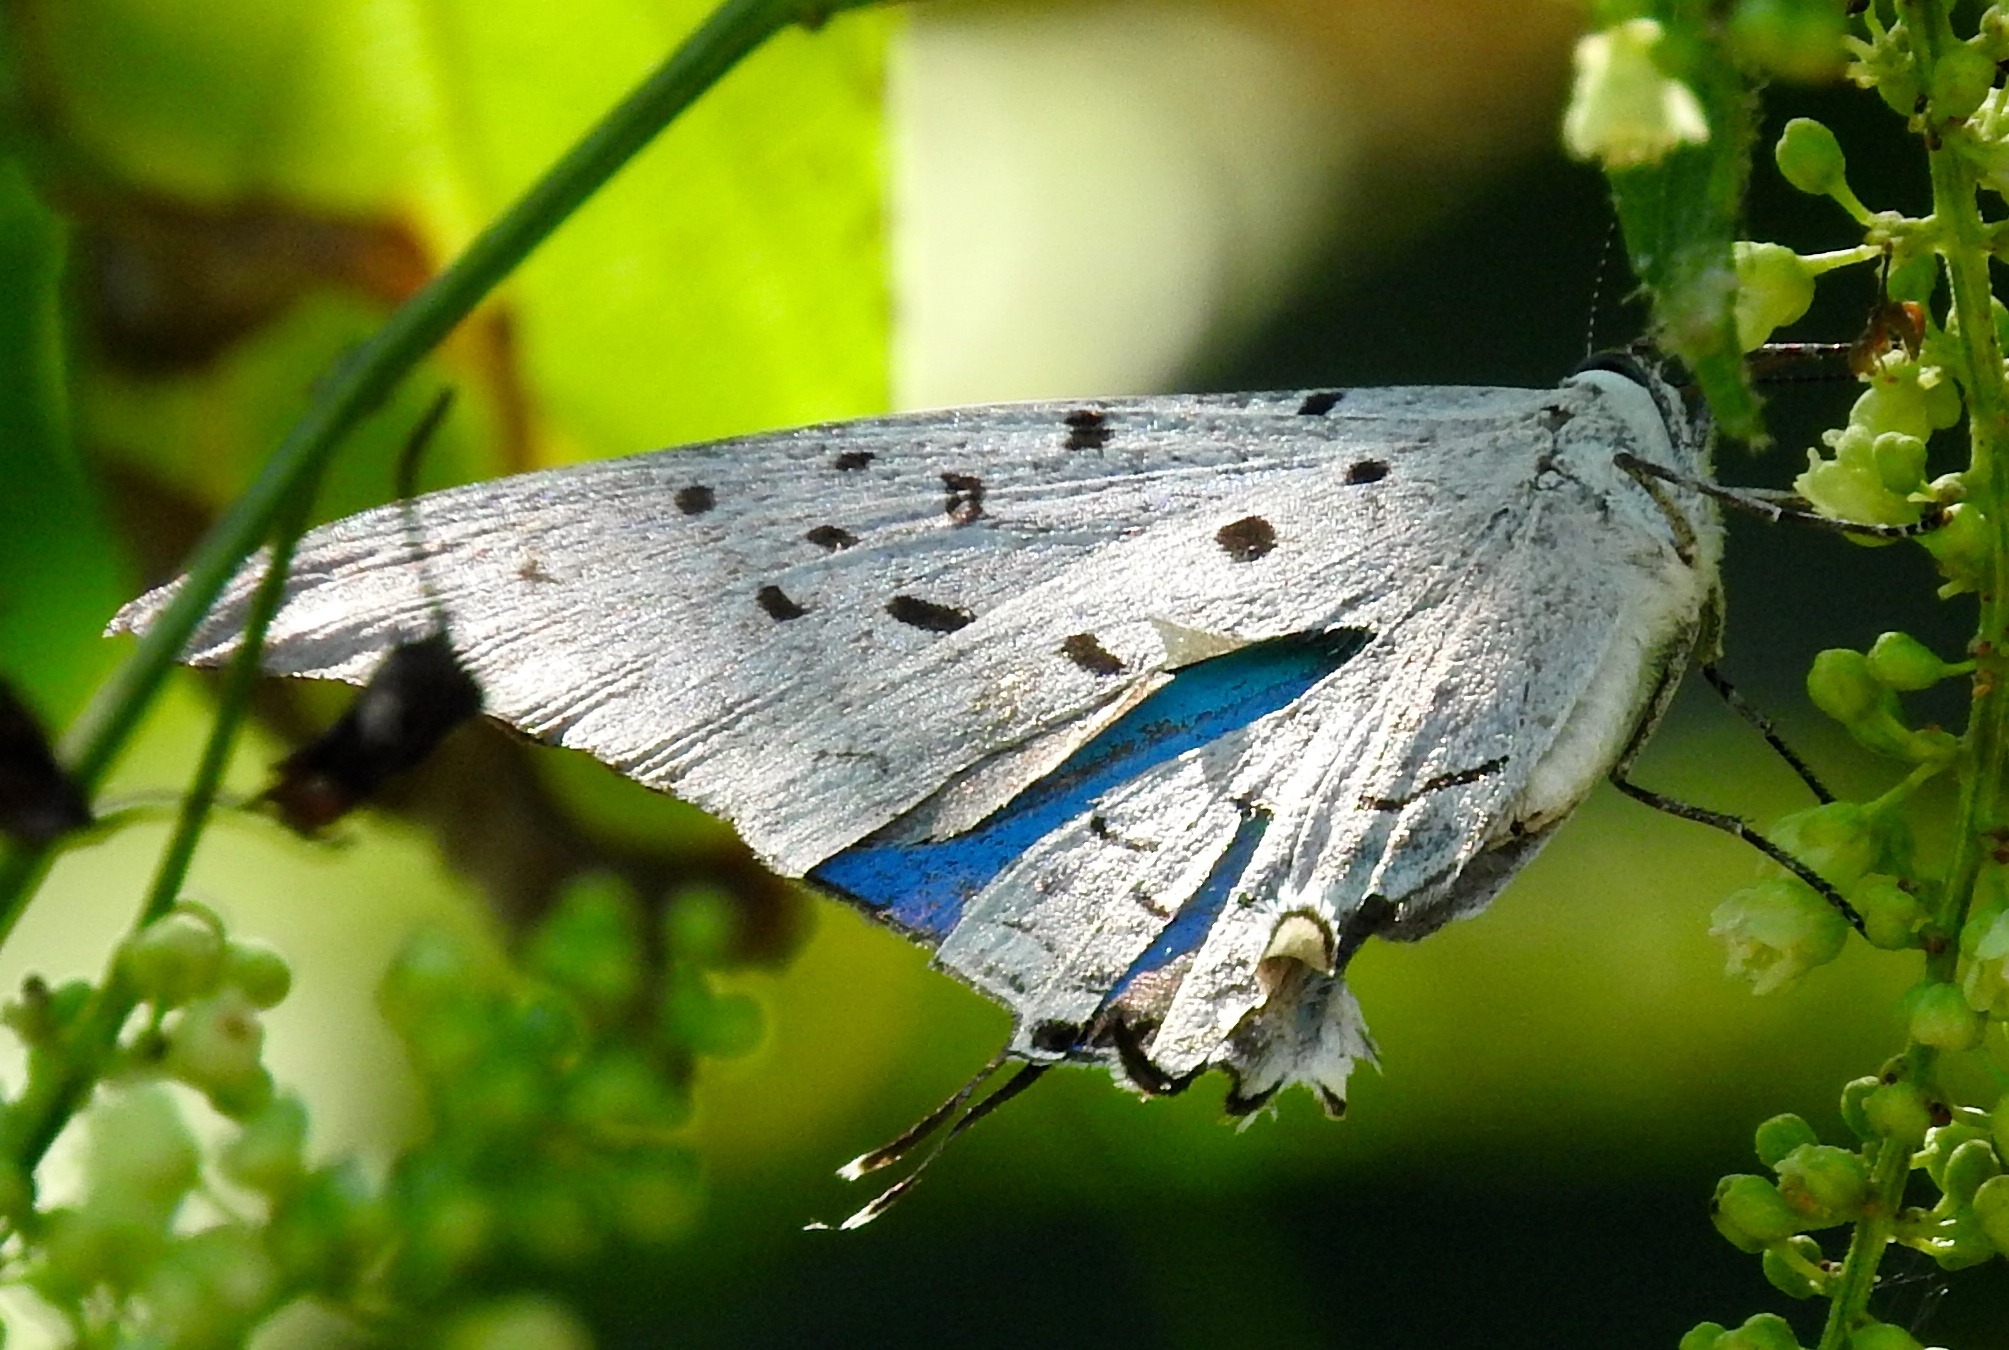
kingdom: Animalia
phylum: Arthropoda
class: Insecta
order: Lepidoptera
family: Lycaenidae
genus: Pseudolycaena
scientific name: Pseudolycaena damo
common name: Sky-blue hairstreak
